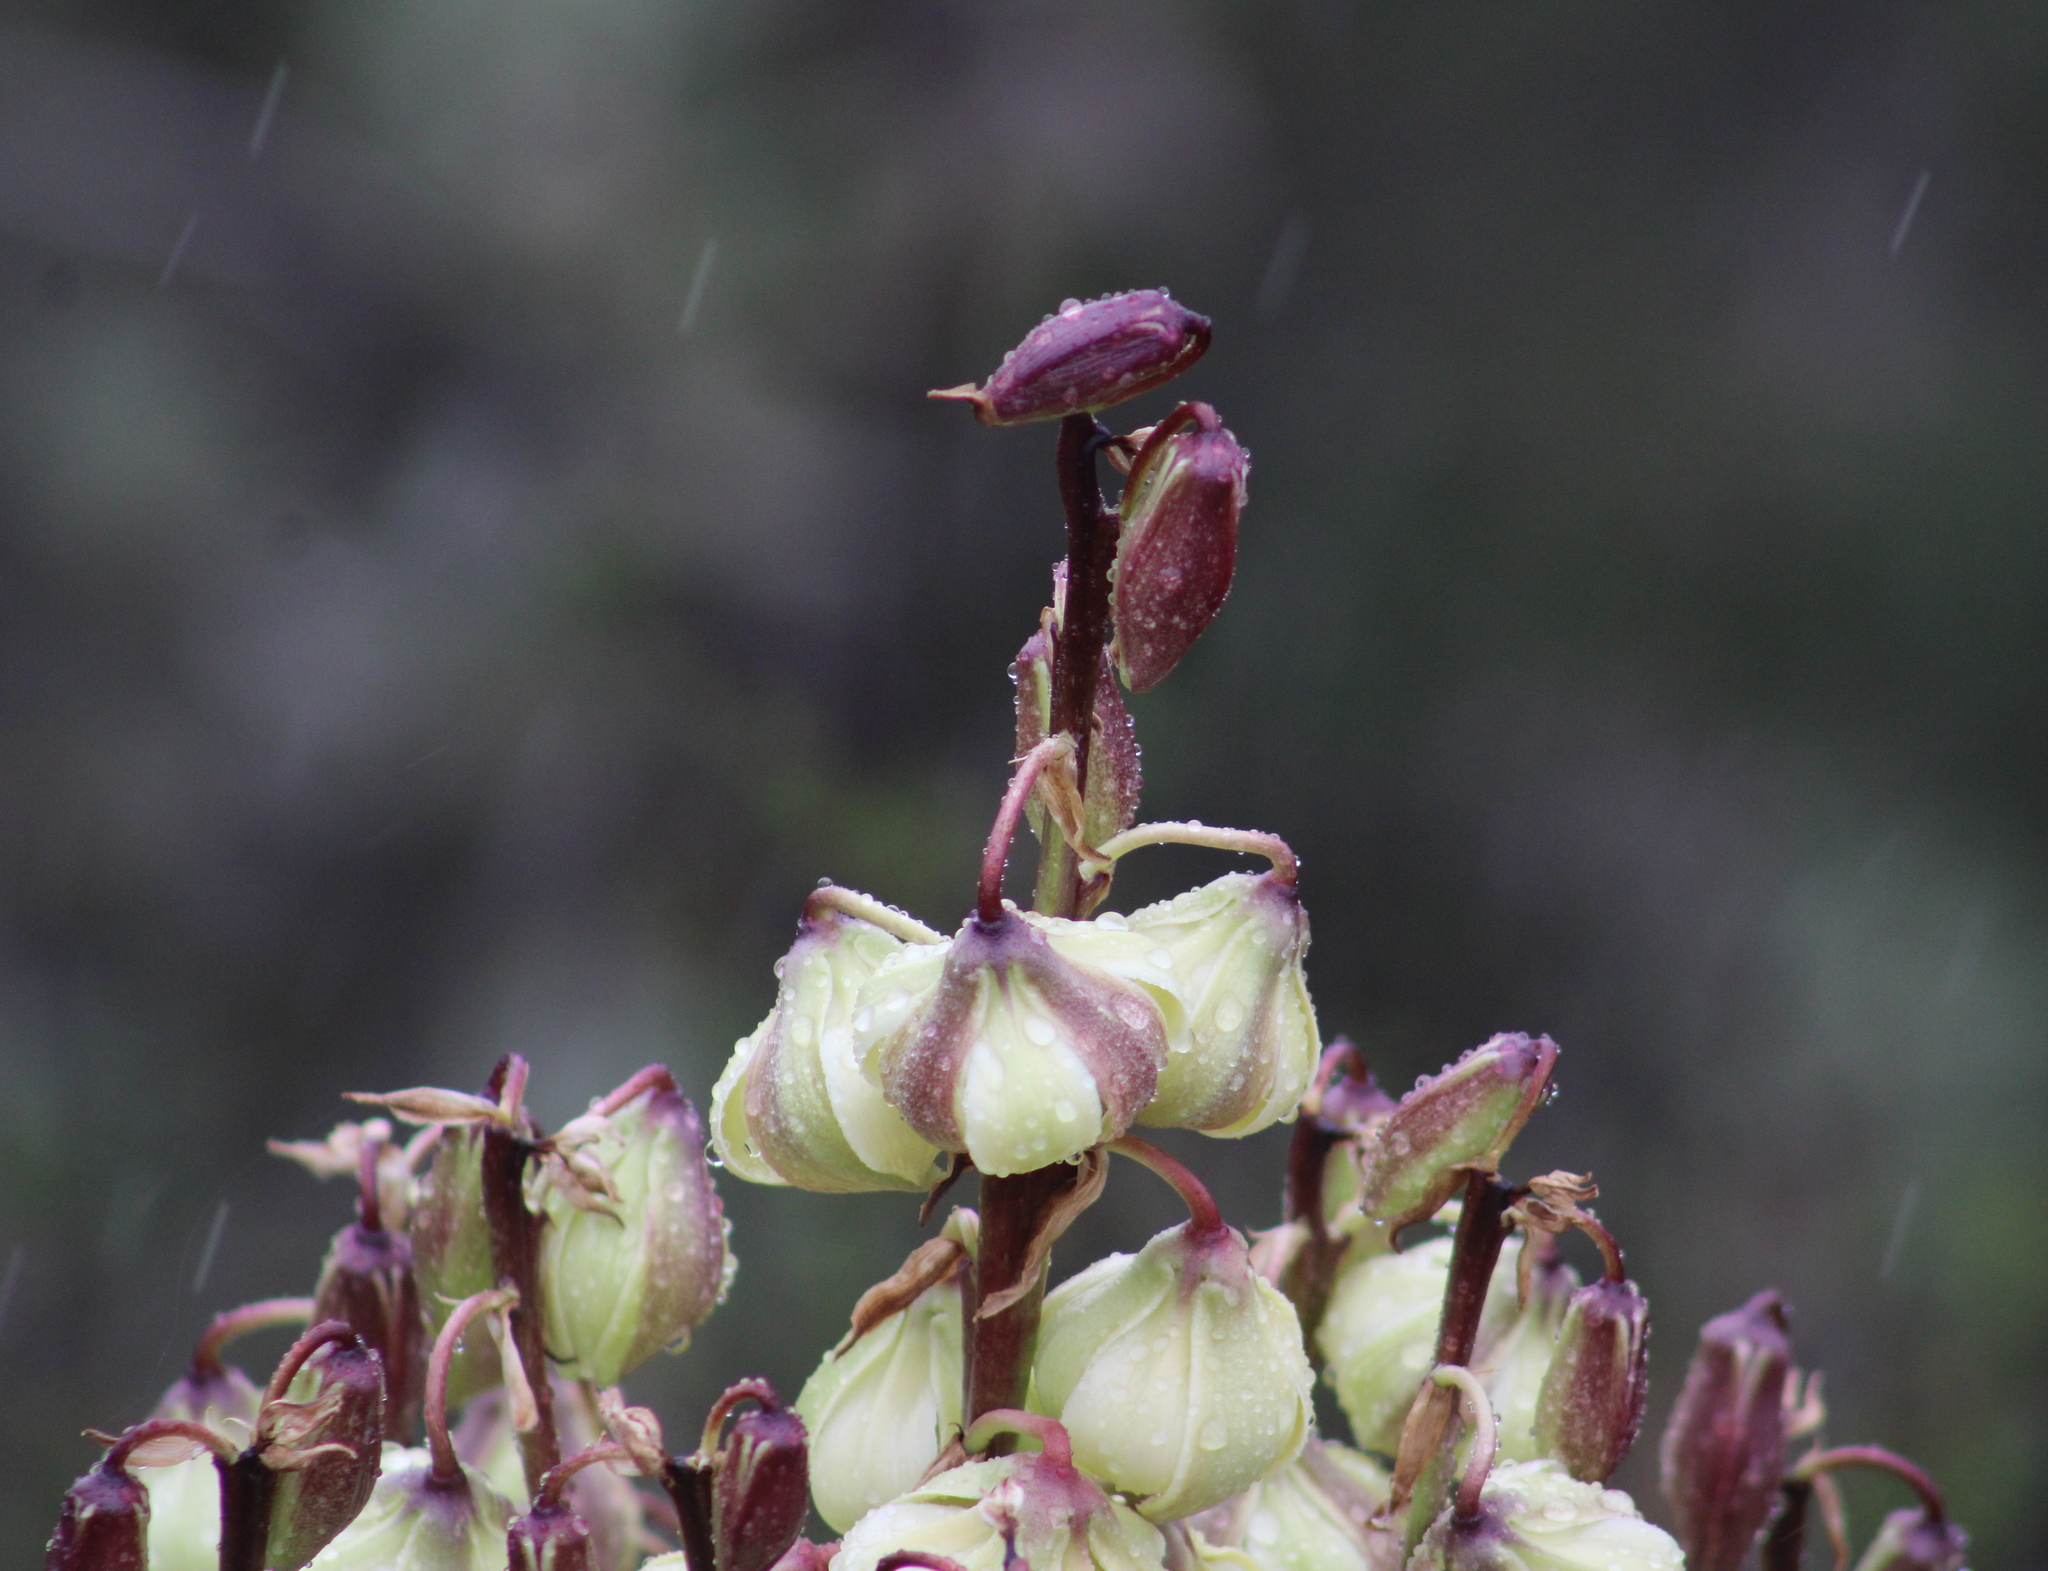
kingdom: Plantae
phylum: Tracheophyta
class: Liliopsida
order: Asparagales
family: Asparagaceae
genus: Yucca
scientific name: Yucca schidigera
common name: Mojave yucca
